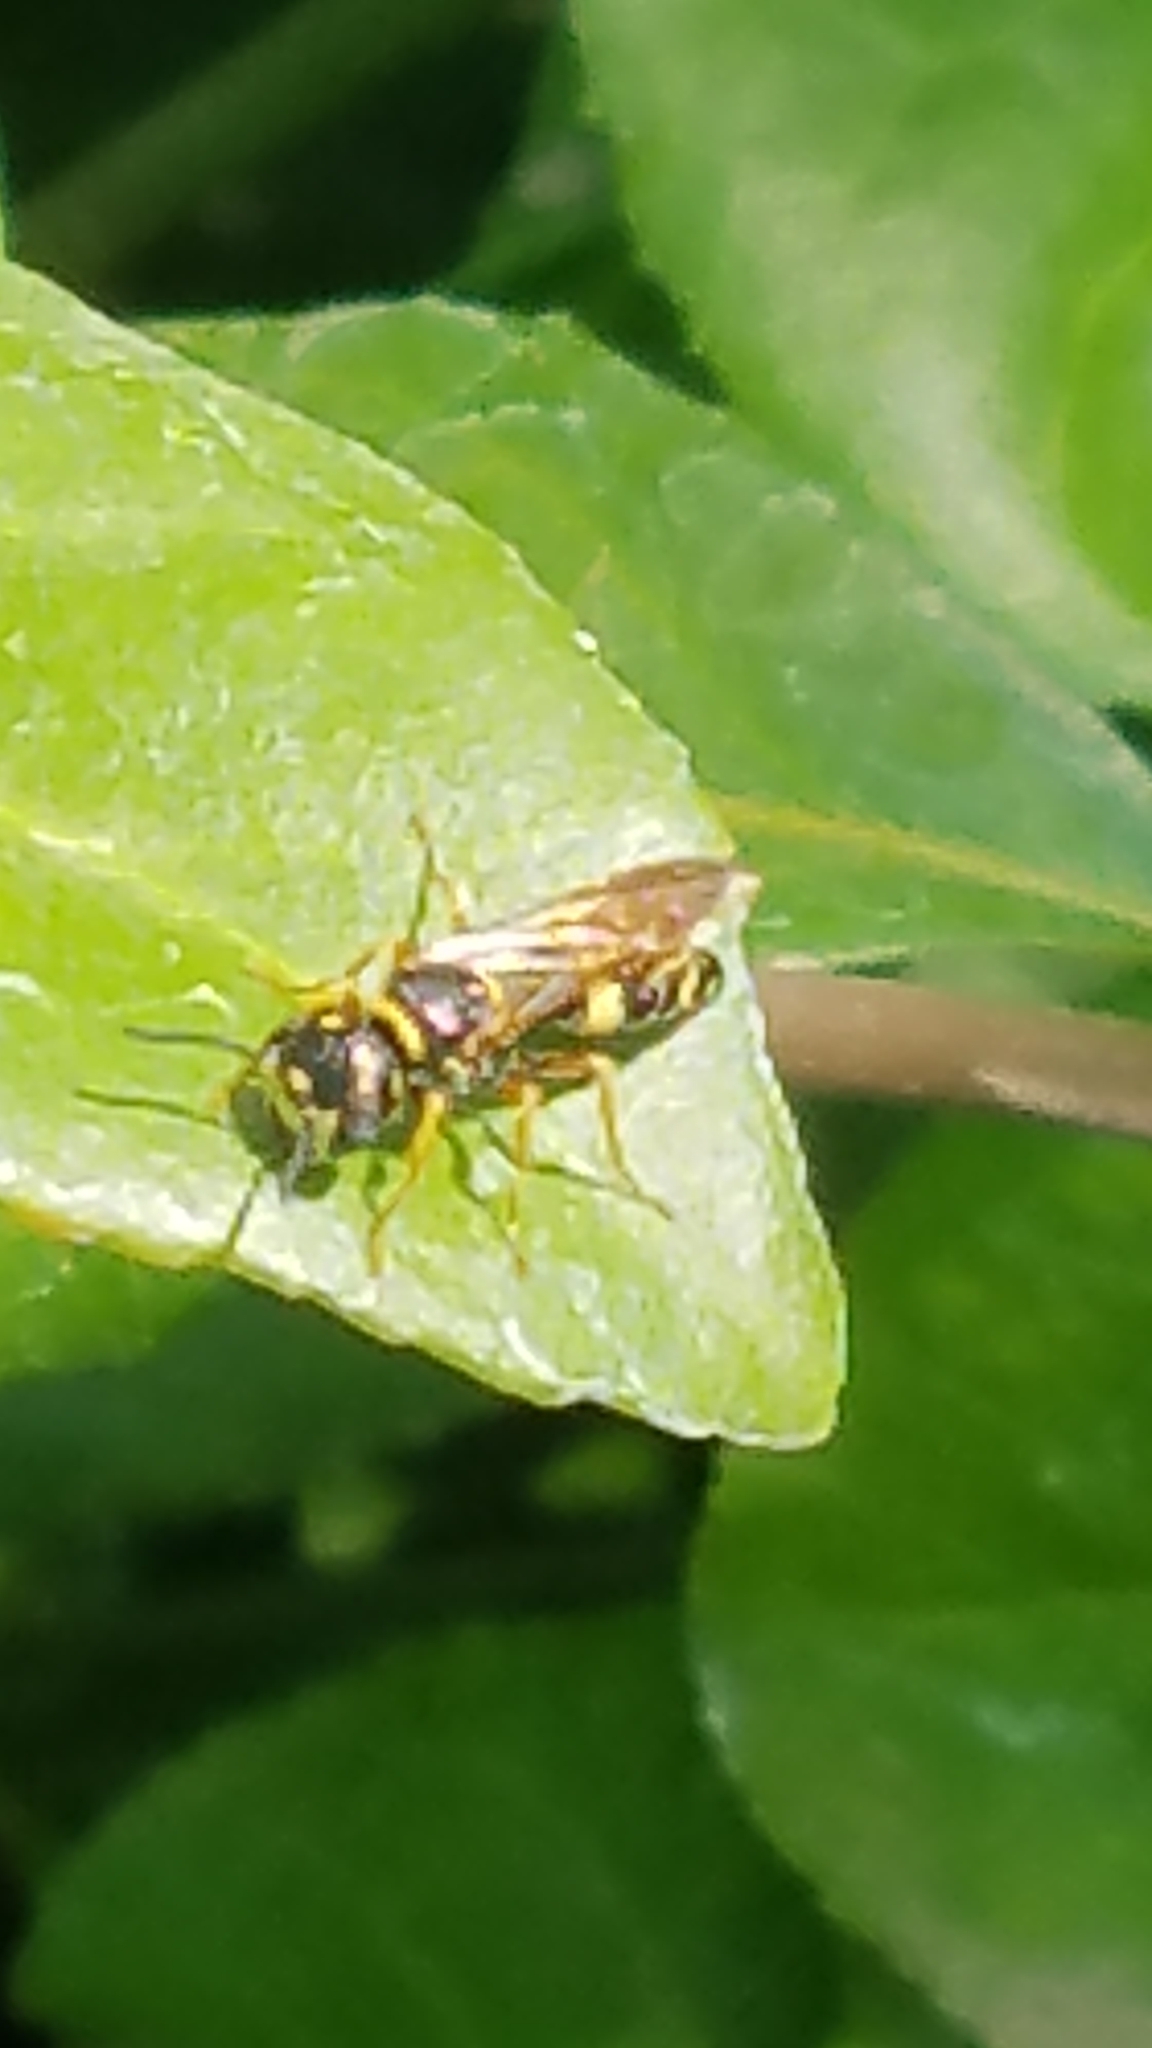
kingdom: Animalia
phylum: Arthropoda
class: Insecta
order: Hymenoptera
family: Crabronidae
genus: Philanthus
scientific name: Philanthus gibbosus
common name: Humped beewolf
